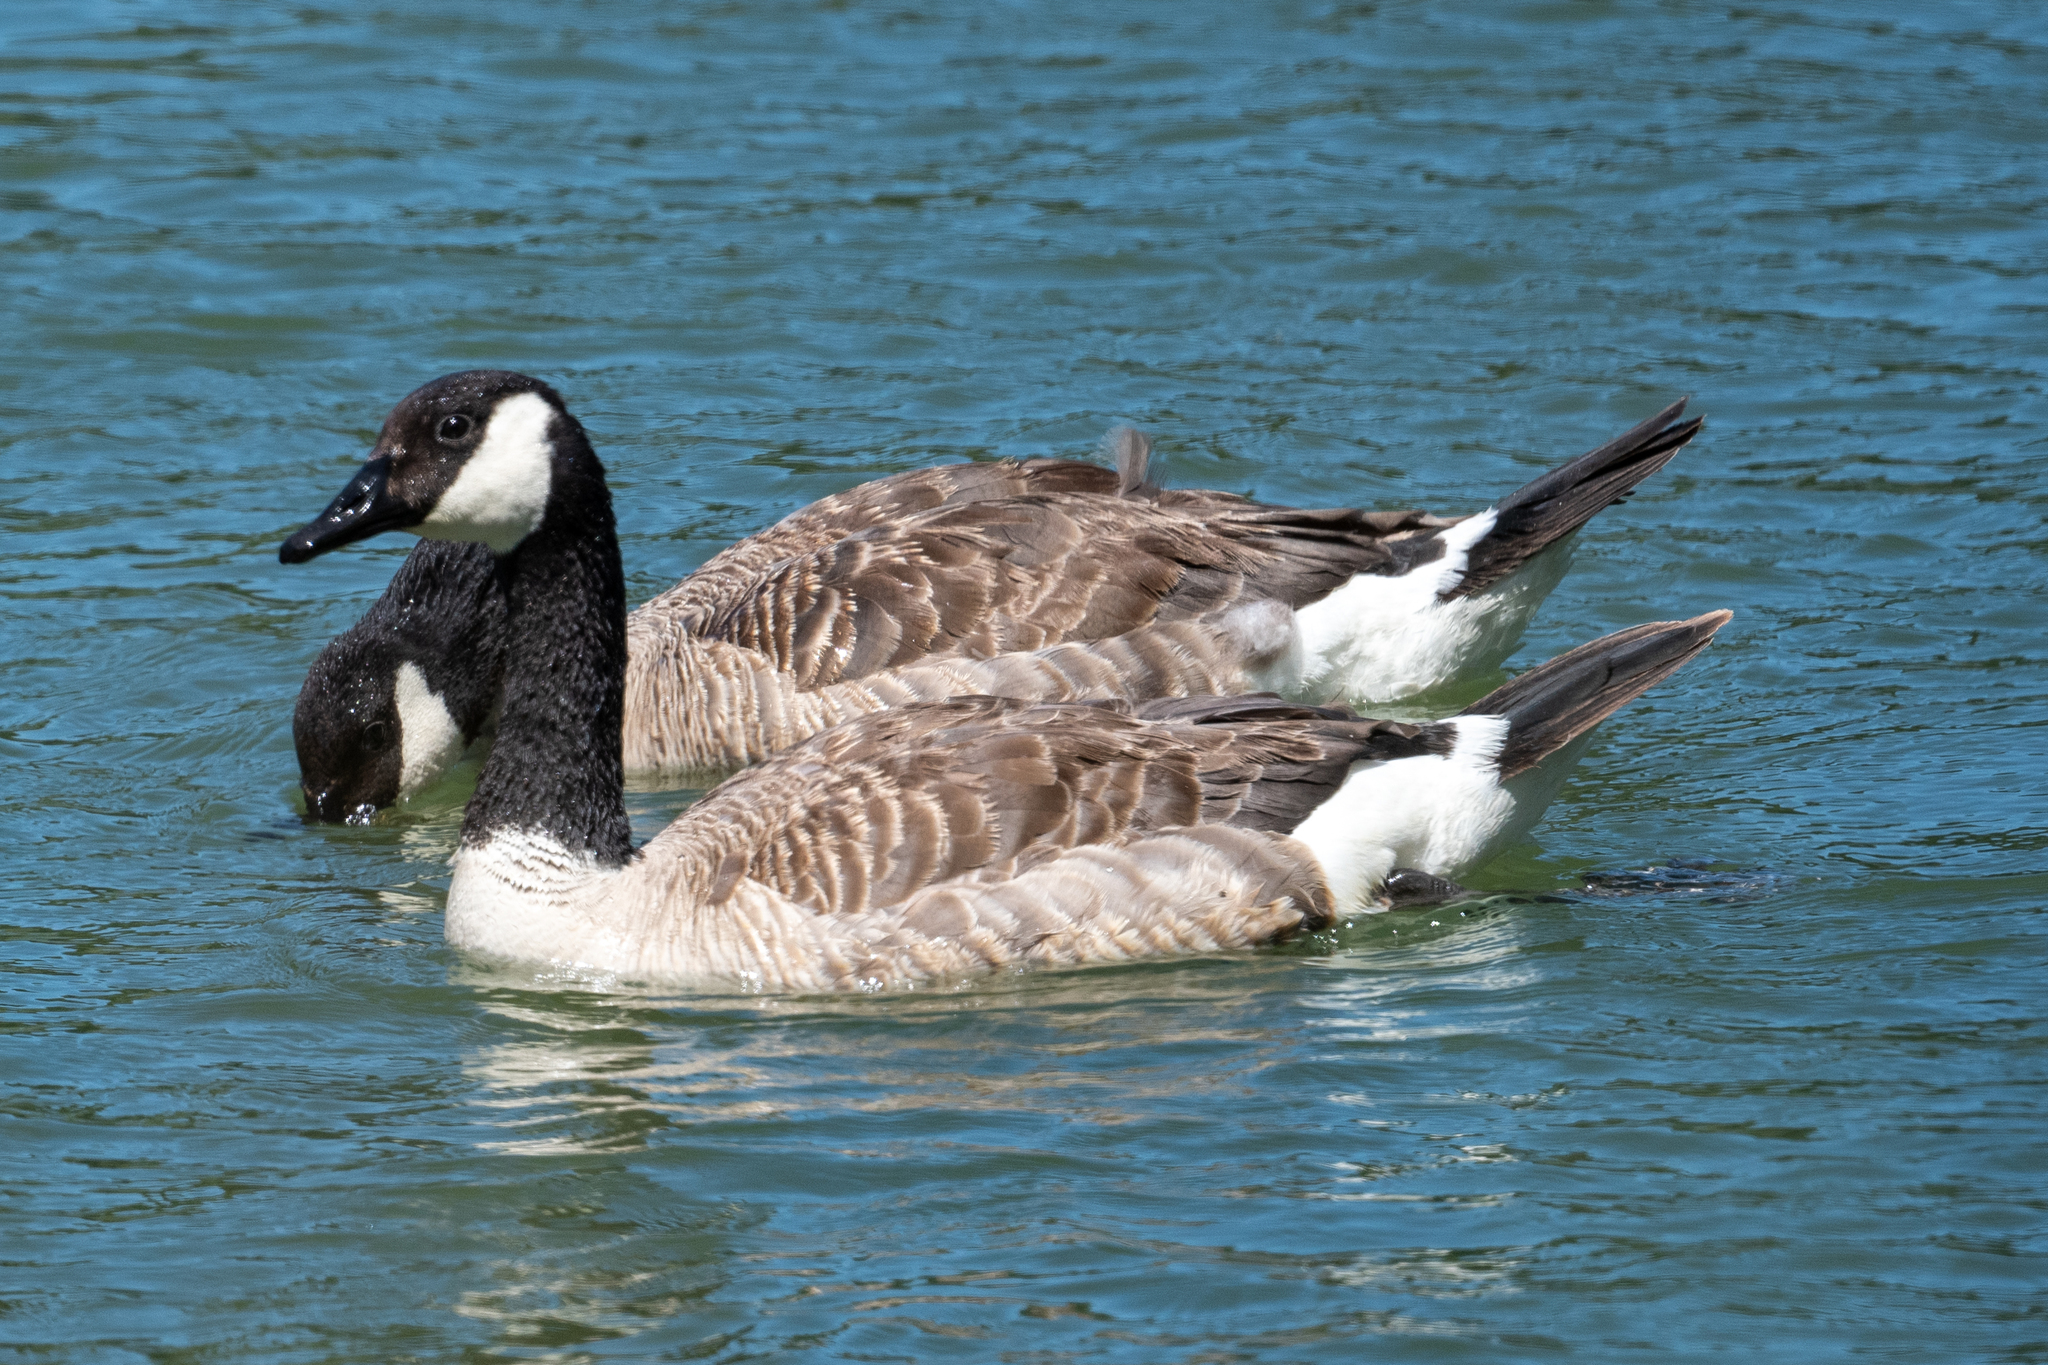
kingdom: Animalia
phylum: Chordata
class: Aves
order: Anseriformes
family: Anatidae
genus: Branta
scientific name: Branta canadensis
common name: Canada goose
